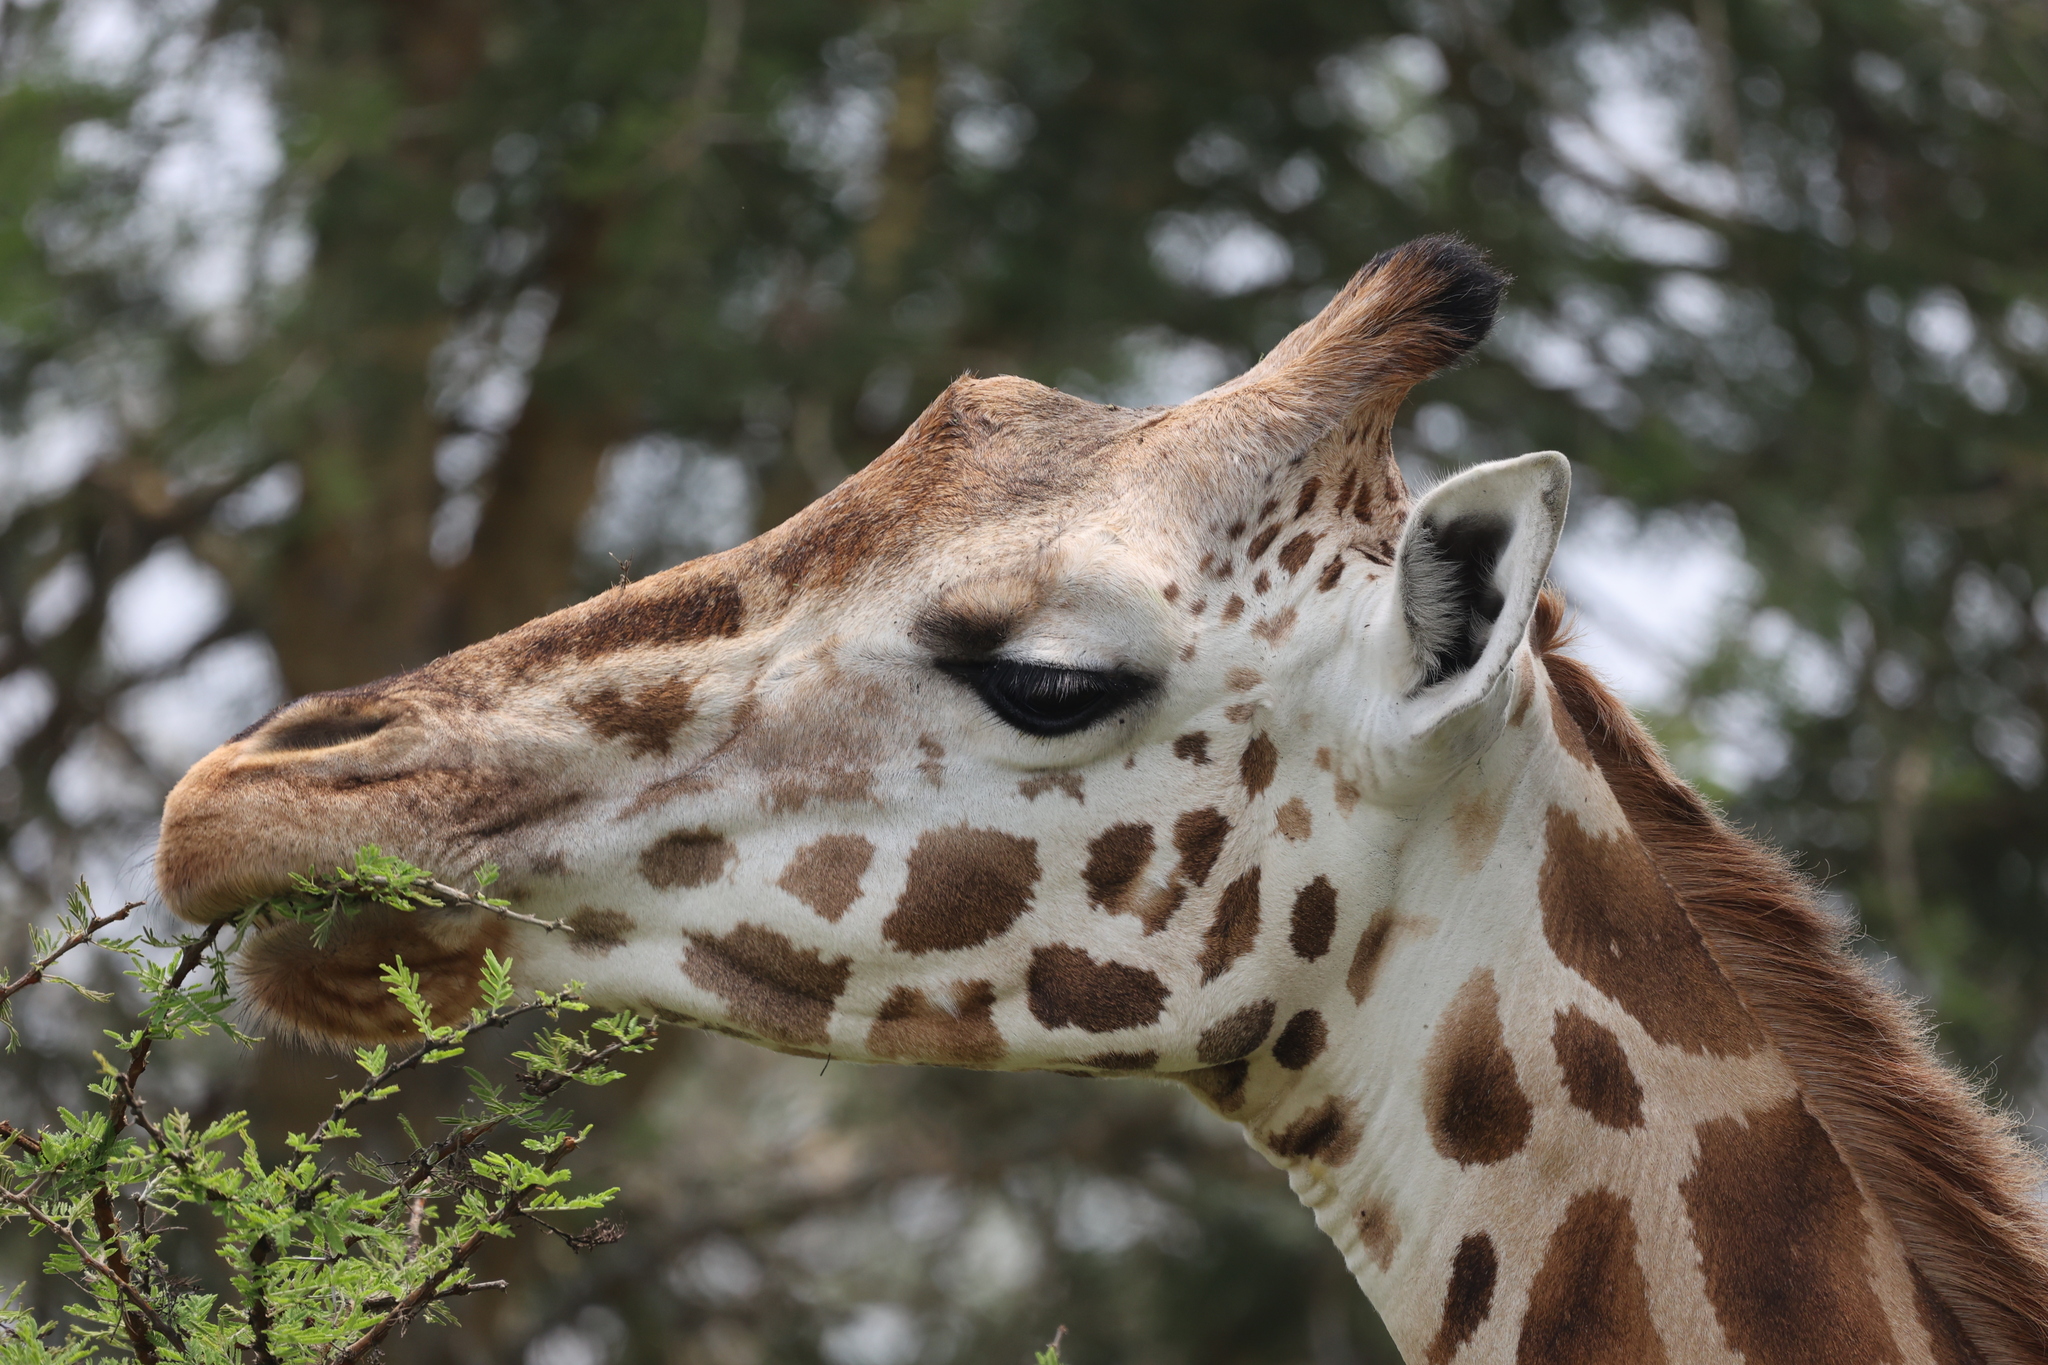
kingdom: Animalia
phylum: Chordata
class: Mammalia
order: Artiodactyla
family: Giraffidae
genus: Giraffa
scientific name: Giraffa camelopardalis
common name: Giraffe
